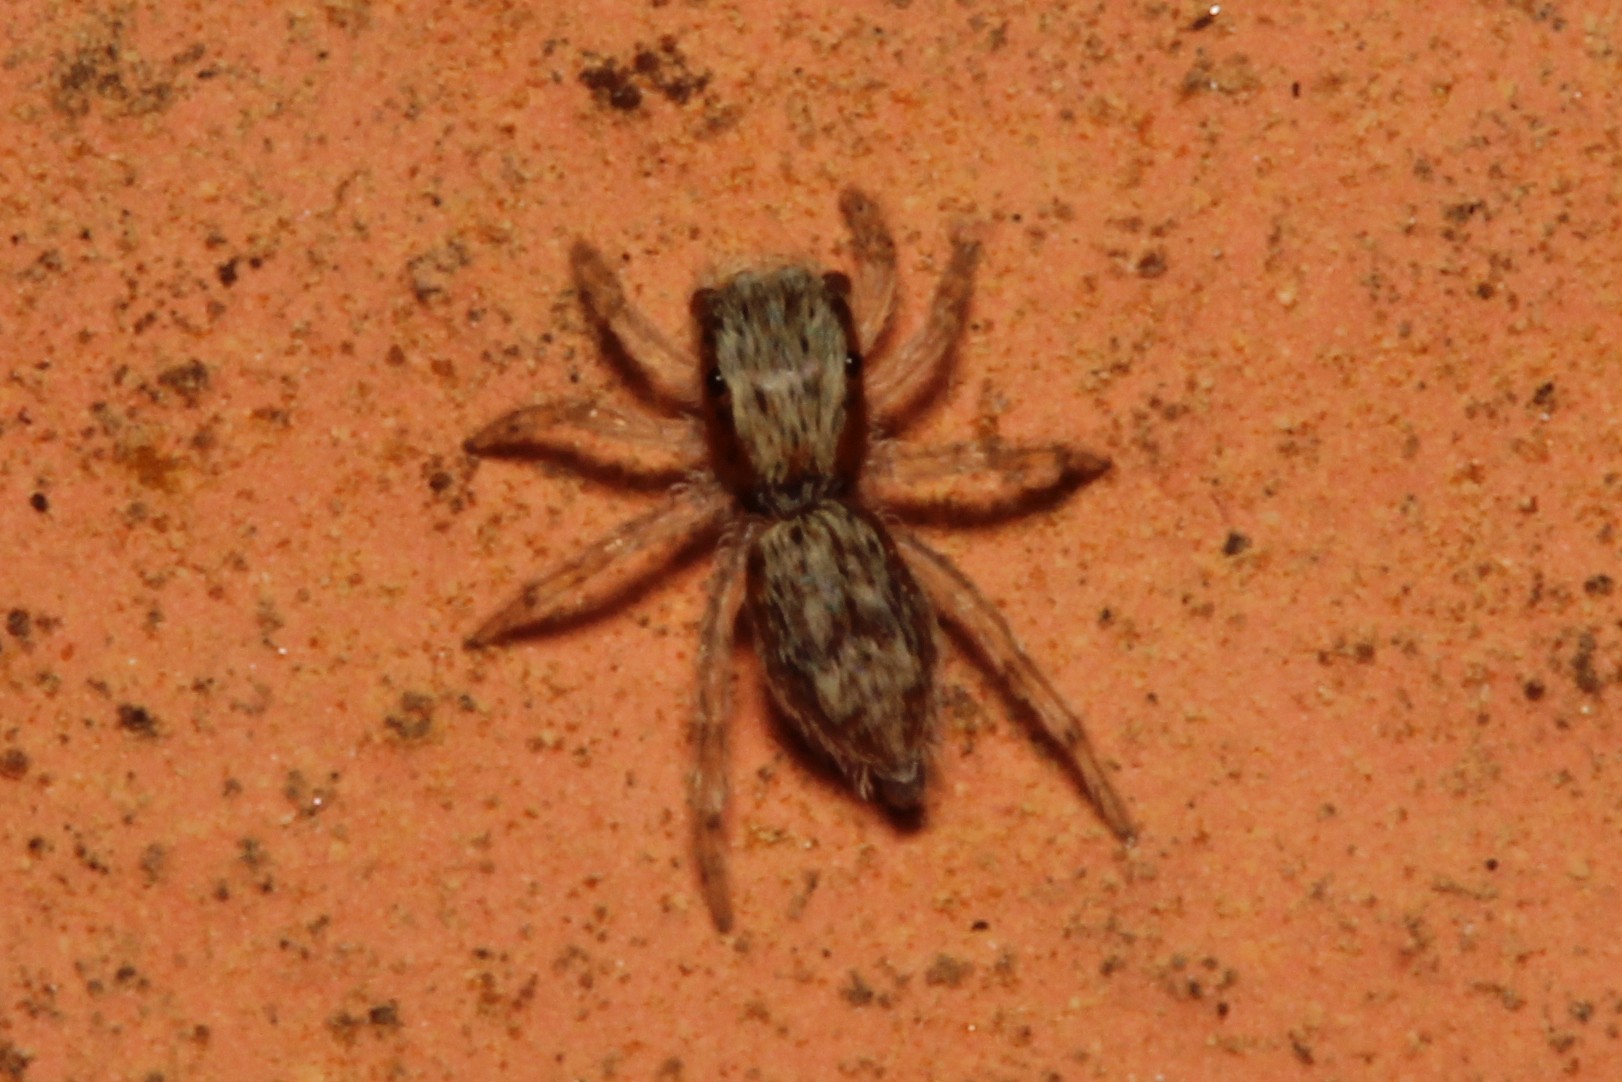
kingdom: Animalia
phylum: Arthropoda
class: Arachnida
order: Araneae
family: Salticidae
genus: Menemerus
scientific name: Menemerus bivittatus
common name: Gray wall jumper
